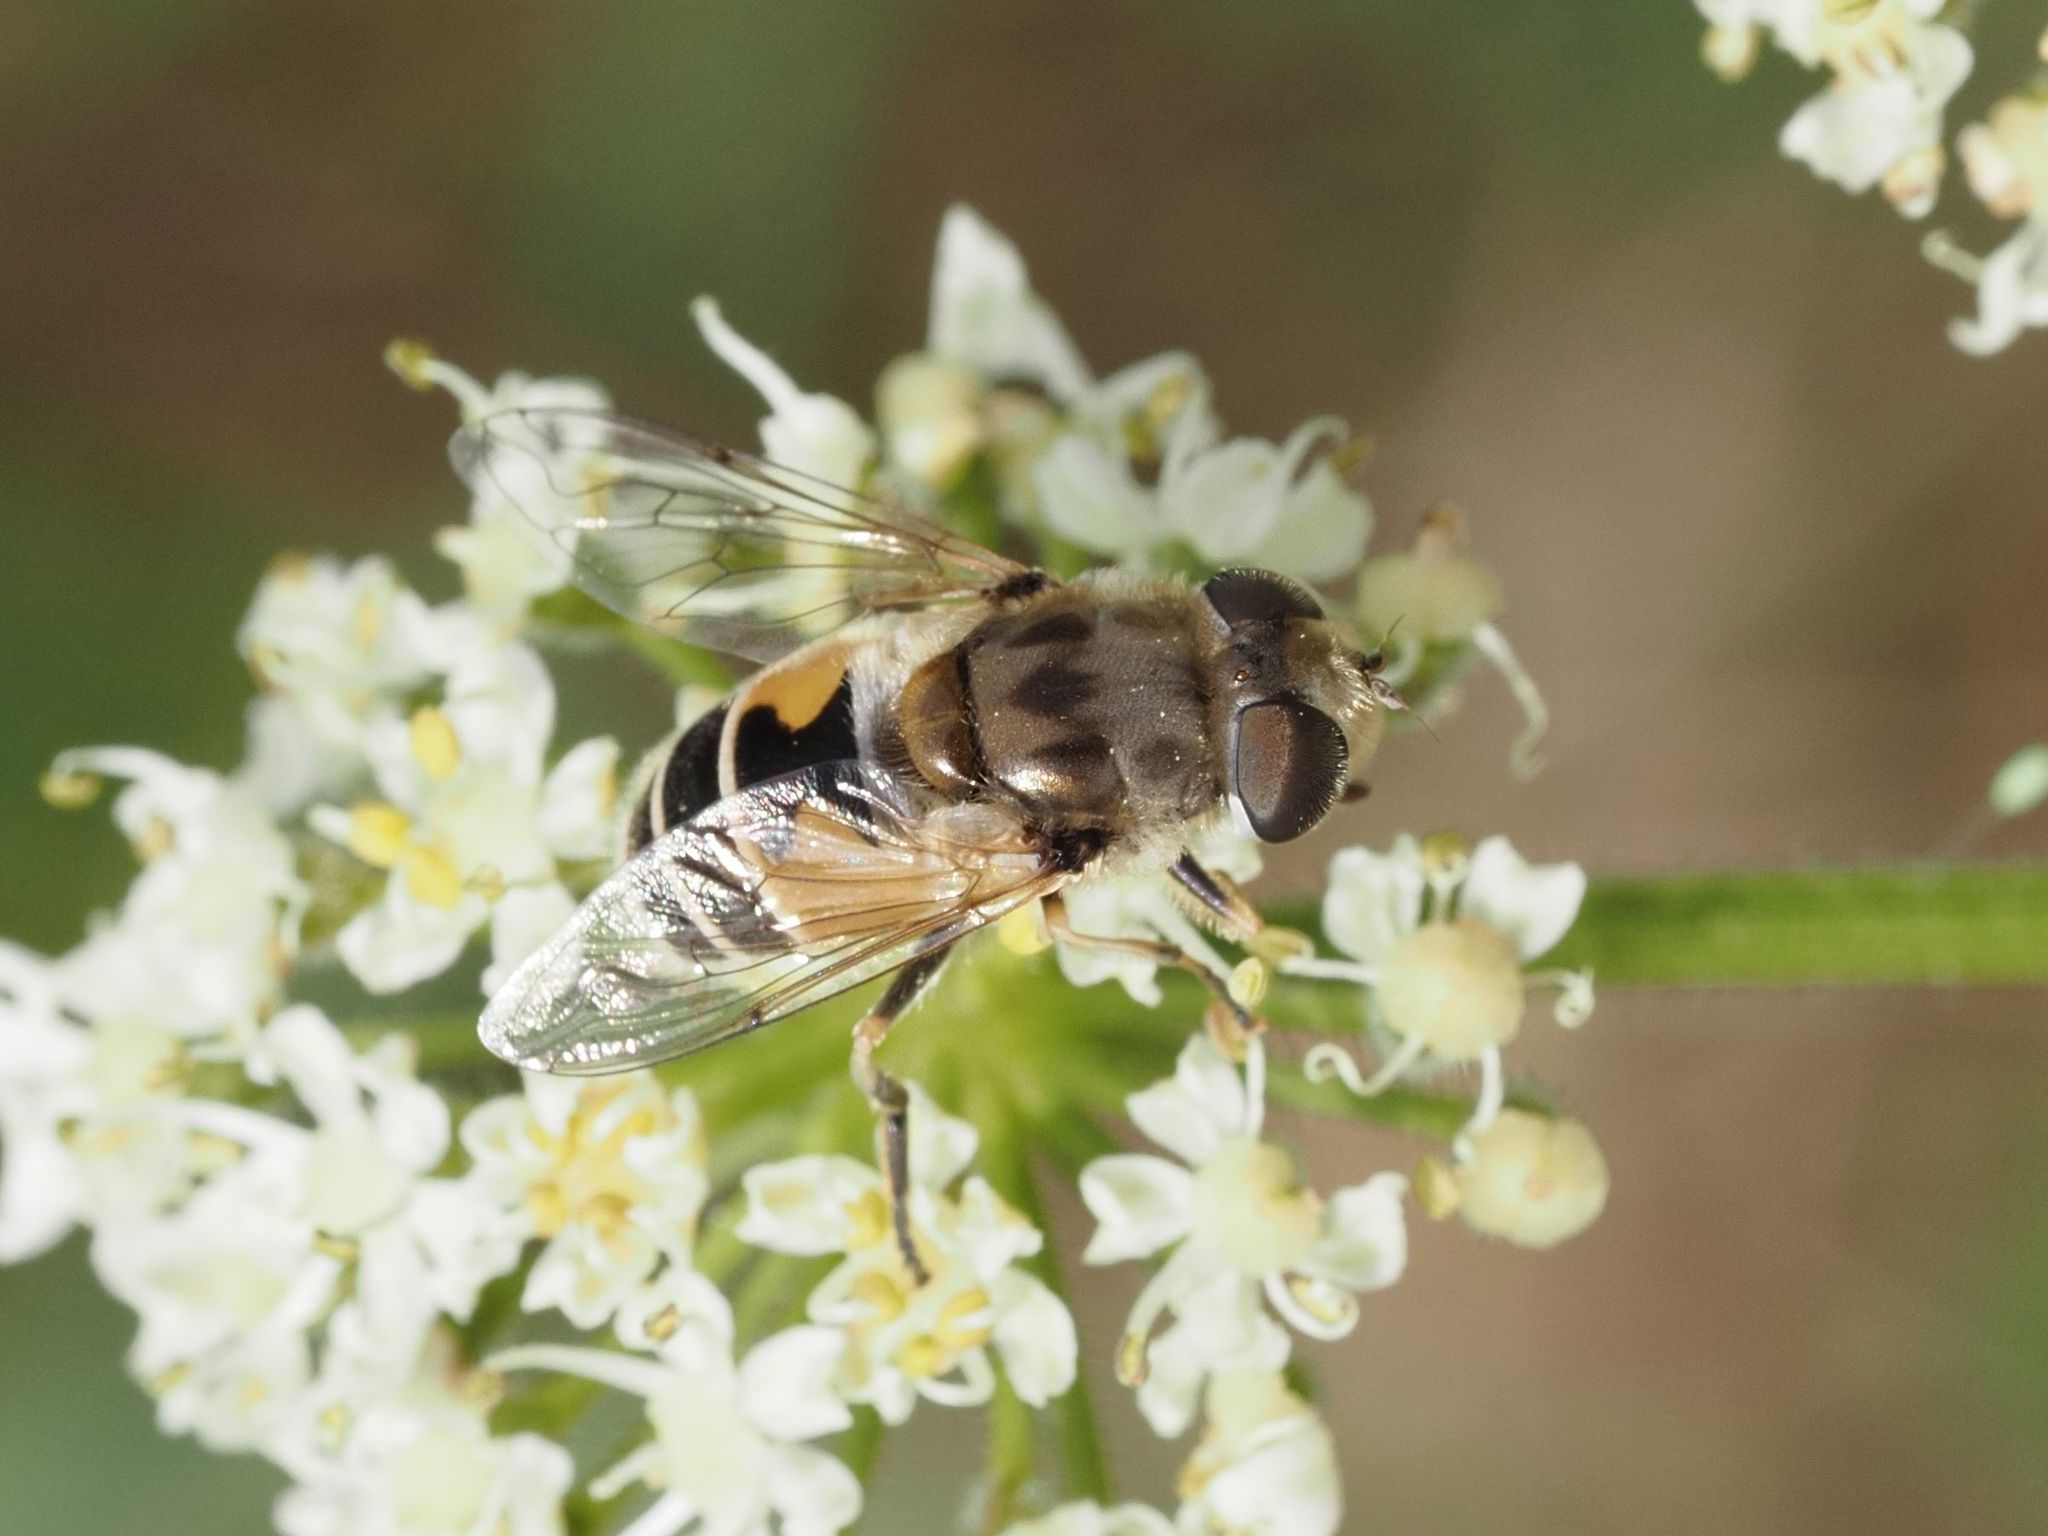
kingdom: Animalia
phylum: Arthropoda
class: Insecta
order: Diptera
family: Syrphidae
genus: Eristalis
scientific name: Eristalis arbustorum
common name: Hover fly
